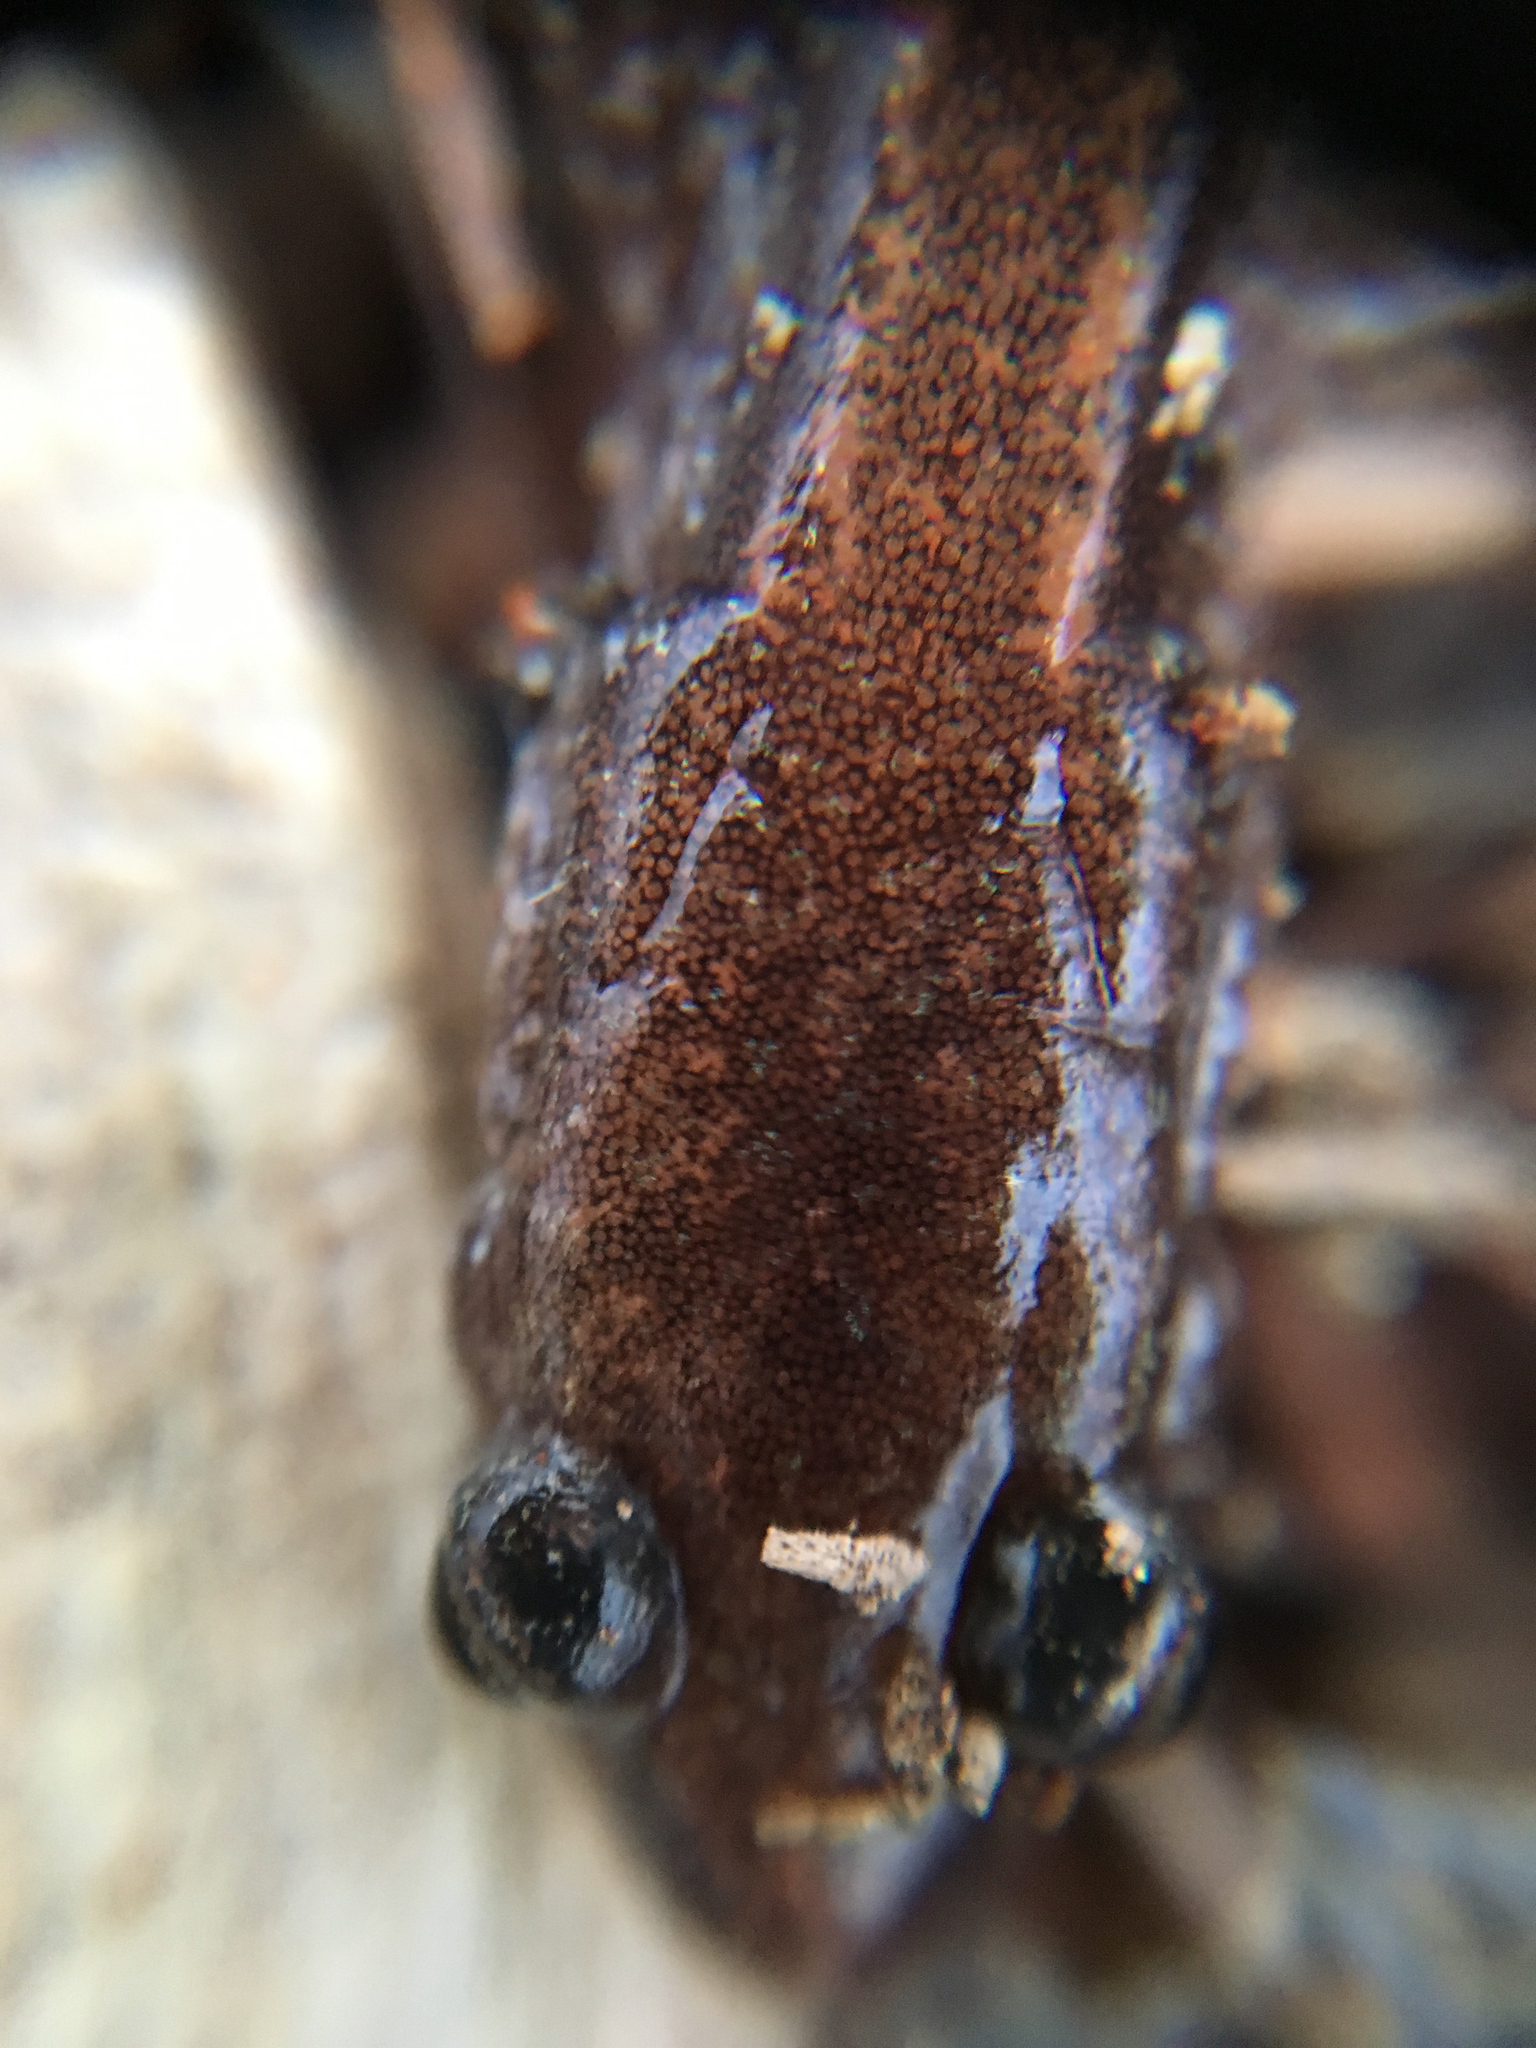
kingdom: Animalia
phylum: Chordata
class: Amphibia
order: Caudata
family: Plethodontidae
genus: Plethodon
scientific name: Plethodon cinereus
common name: Redback salamander
